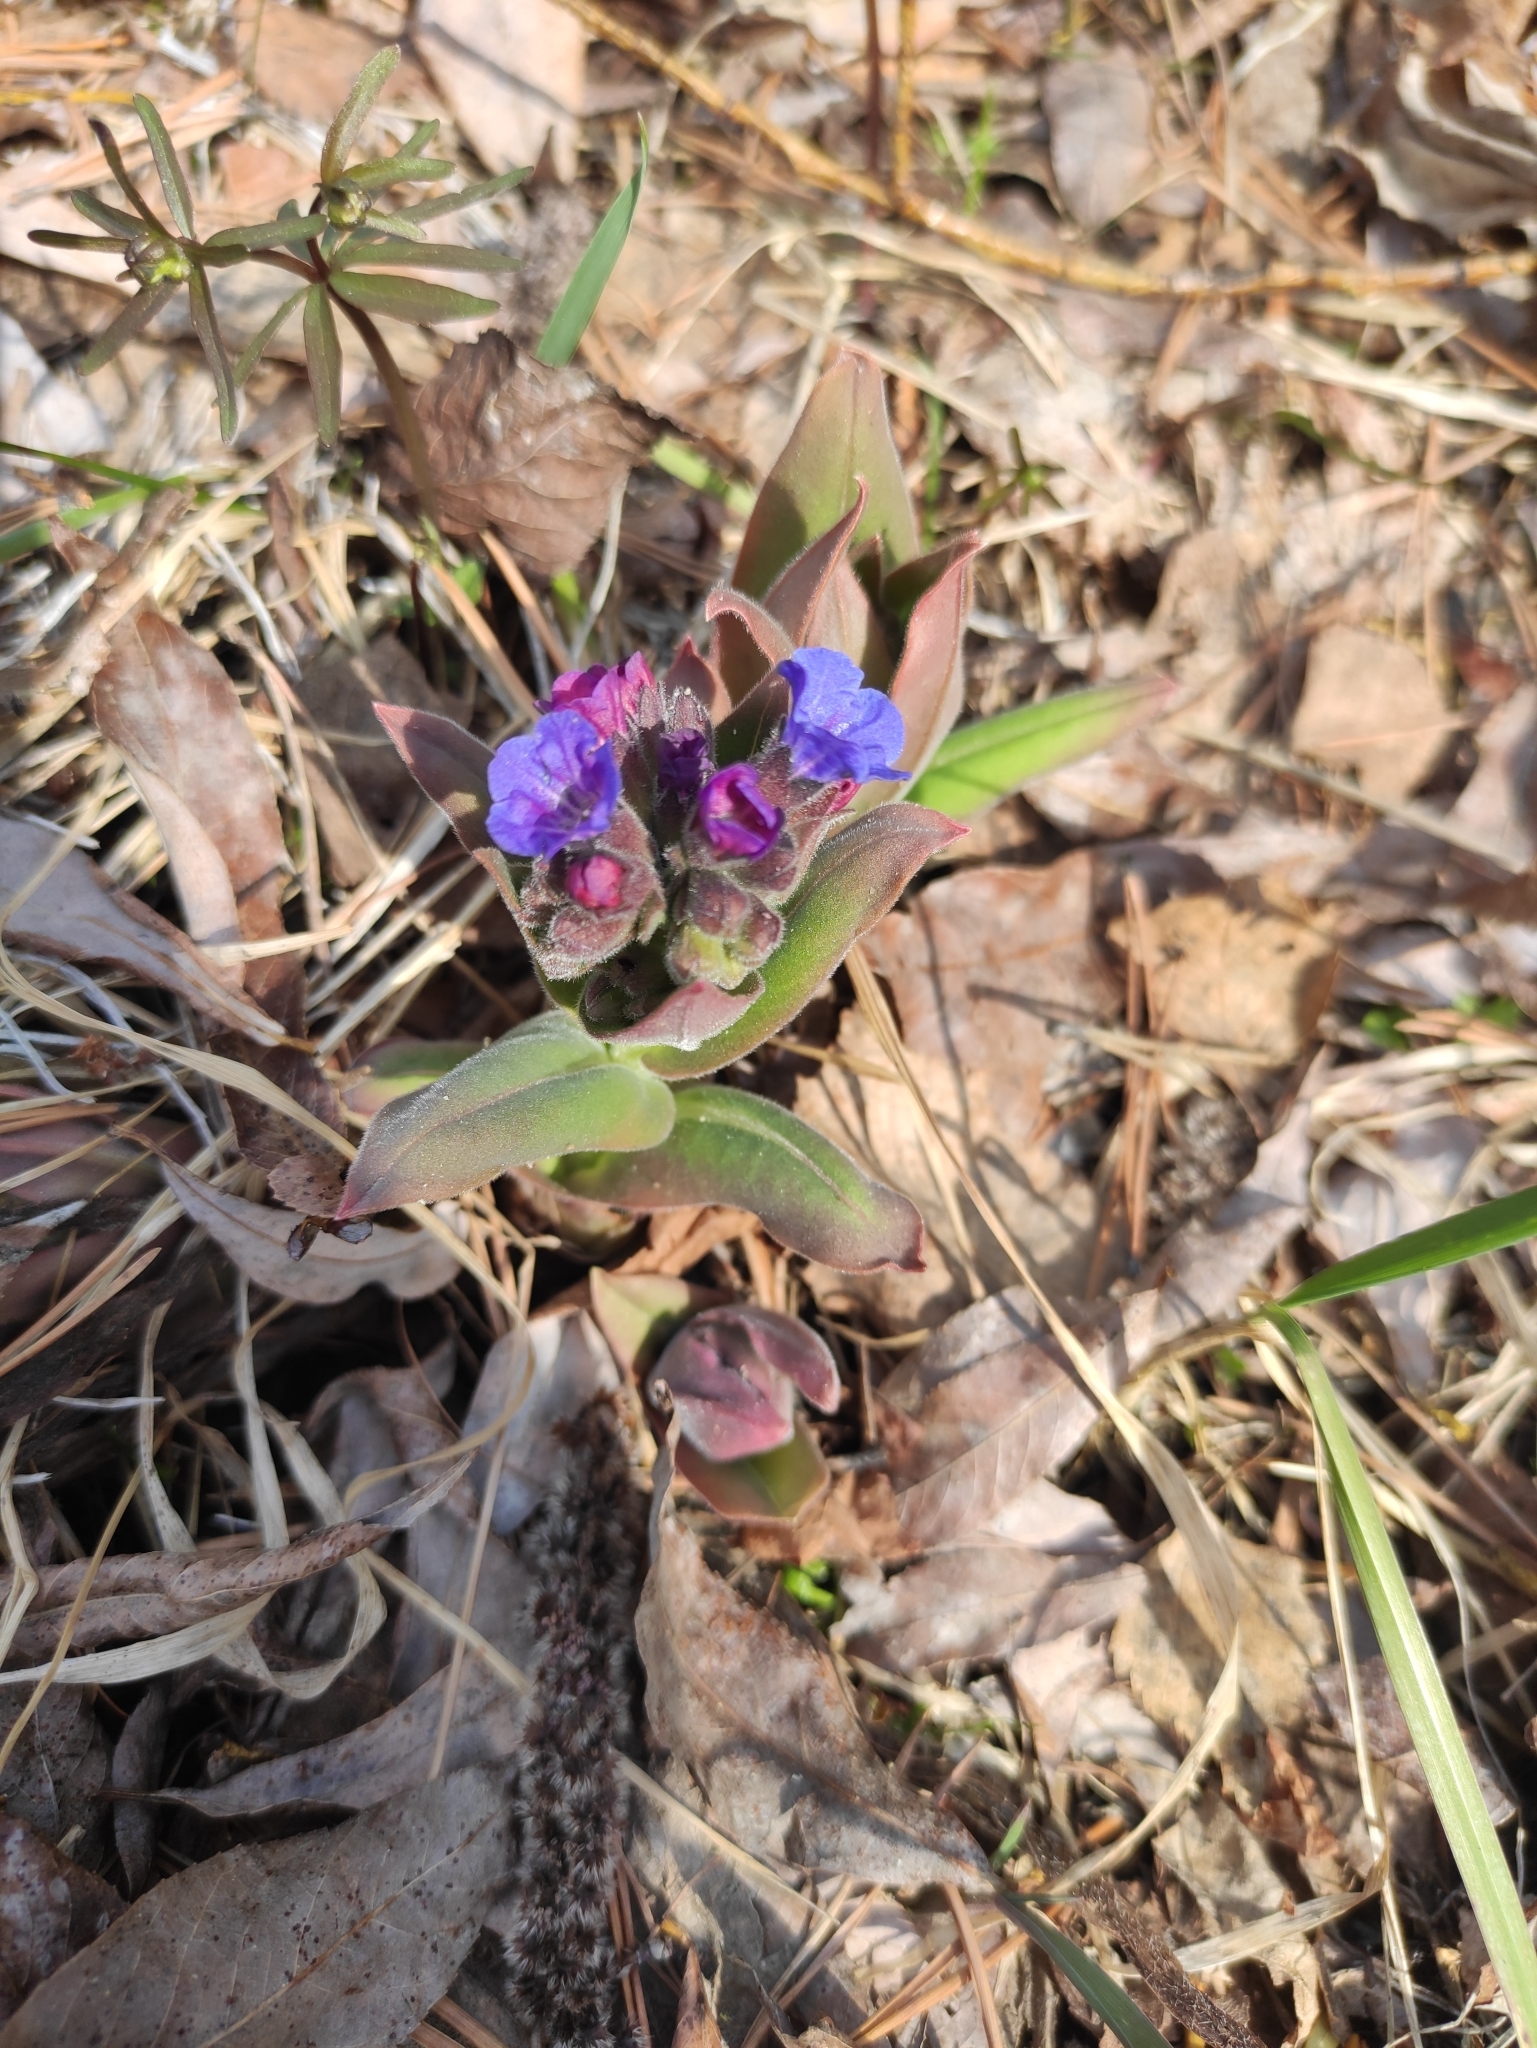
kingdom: Plantae
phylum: Tracheophyta
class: Magnoliopsida
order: Boraginales
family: Boraginaceae
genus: Pulmonaria
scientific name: Pulmonaria mollis
